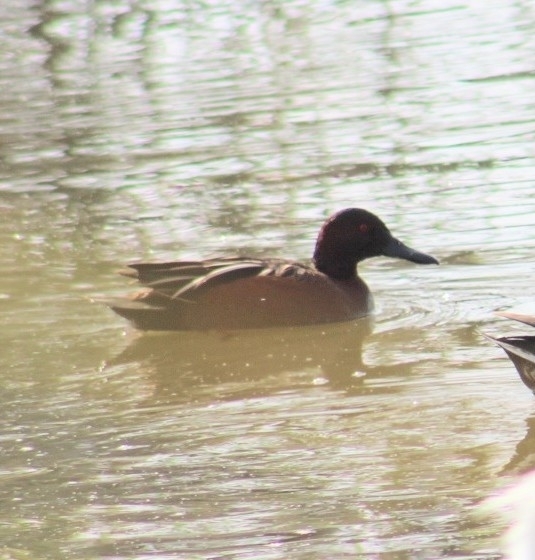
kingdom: Animalia
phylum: Chordata
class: Aves
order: Anseriformes
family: Anatidae
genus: Spatula
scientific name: Spatula cyanoptera
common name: Cinnamon teal
